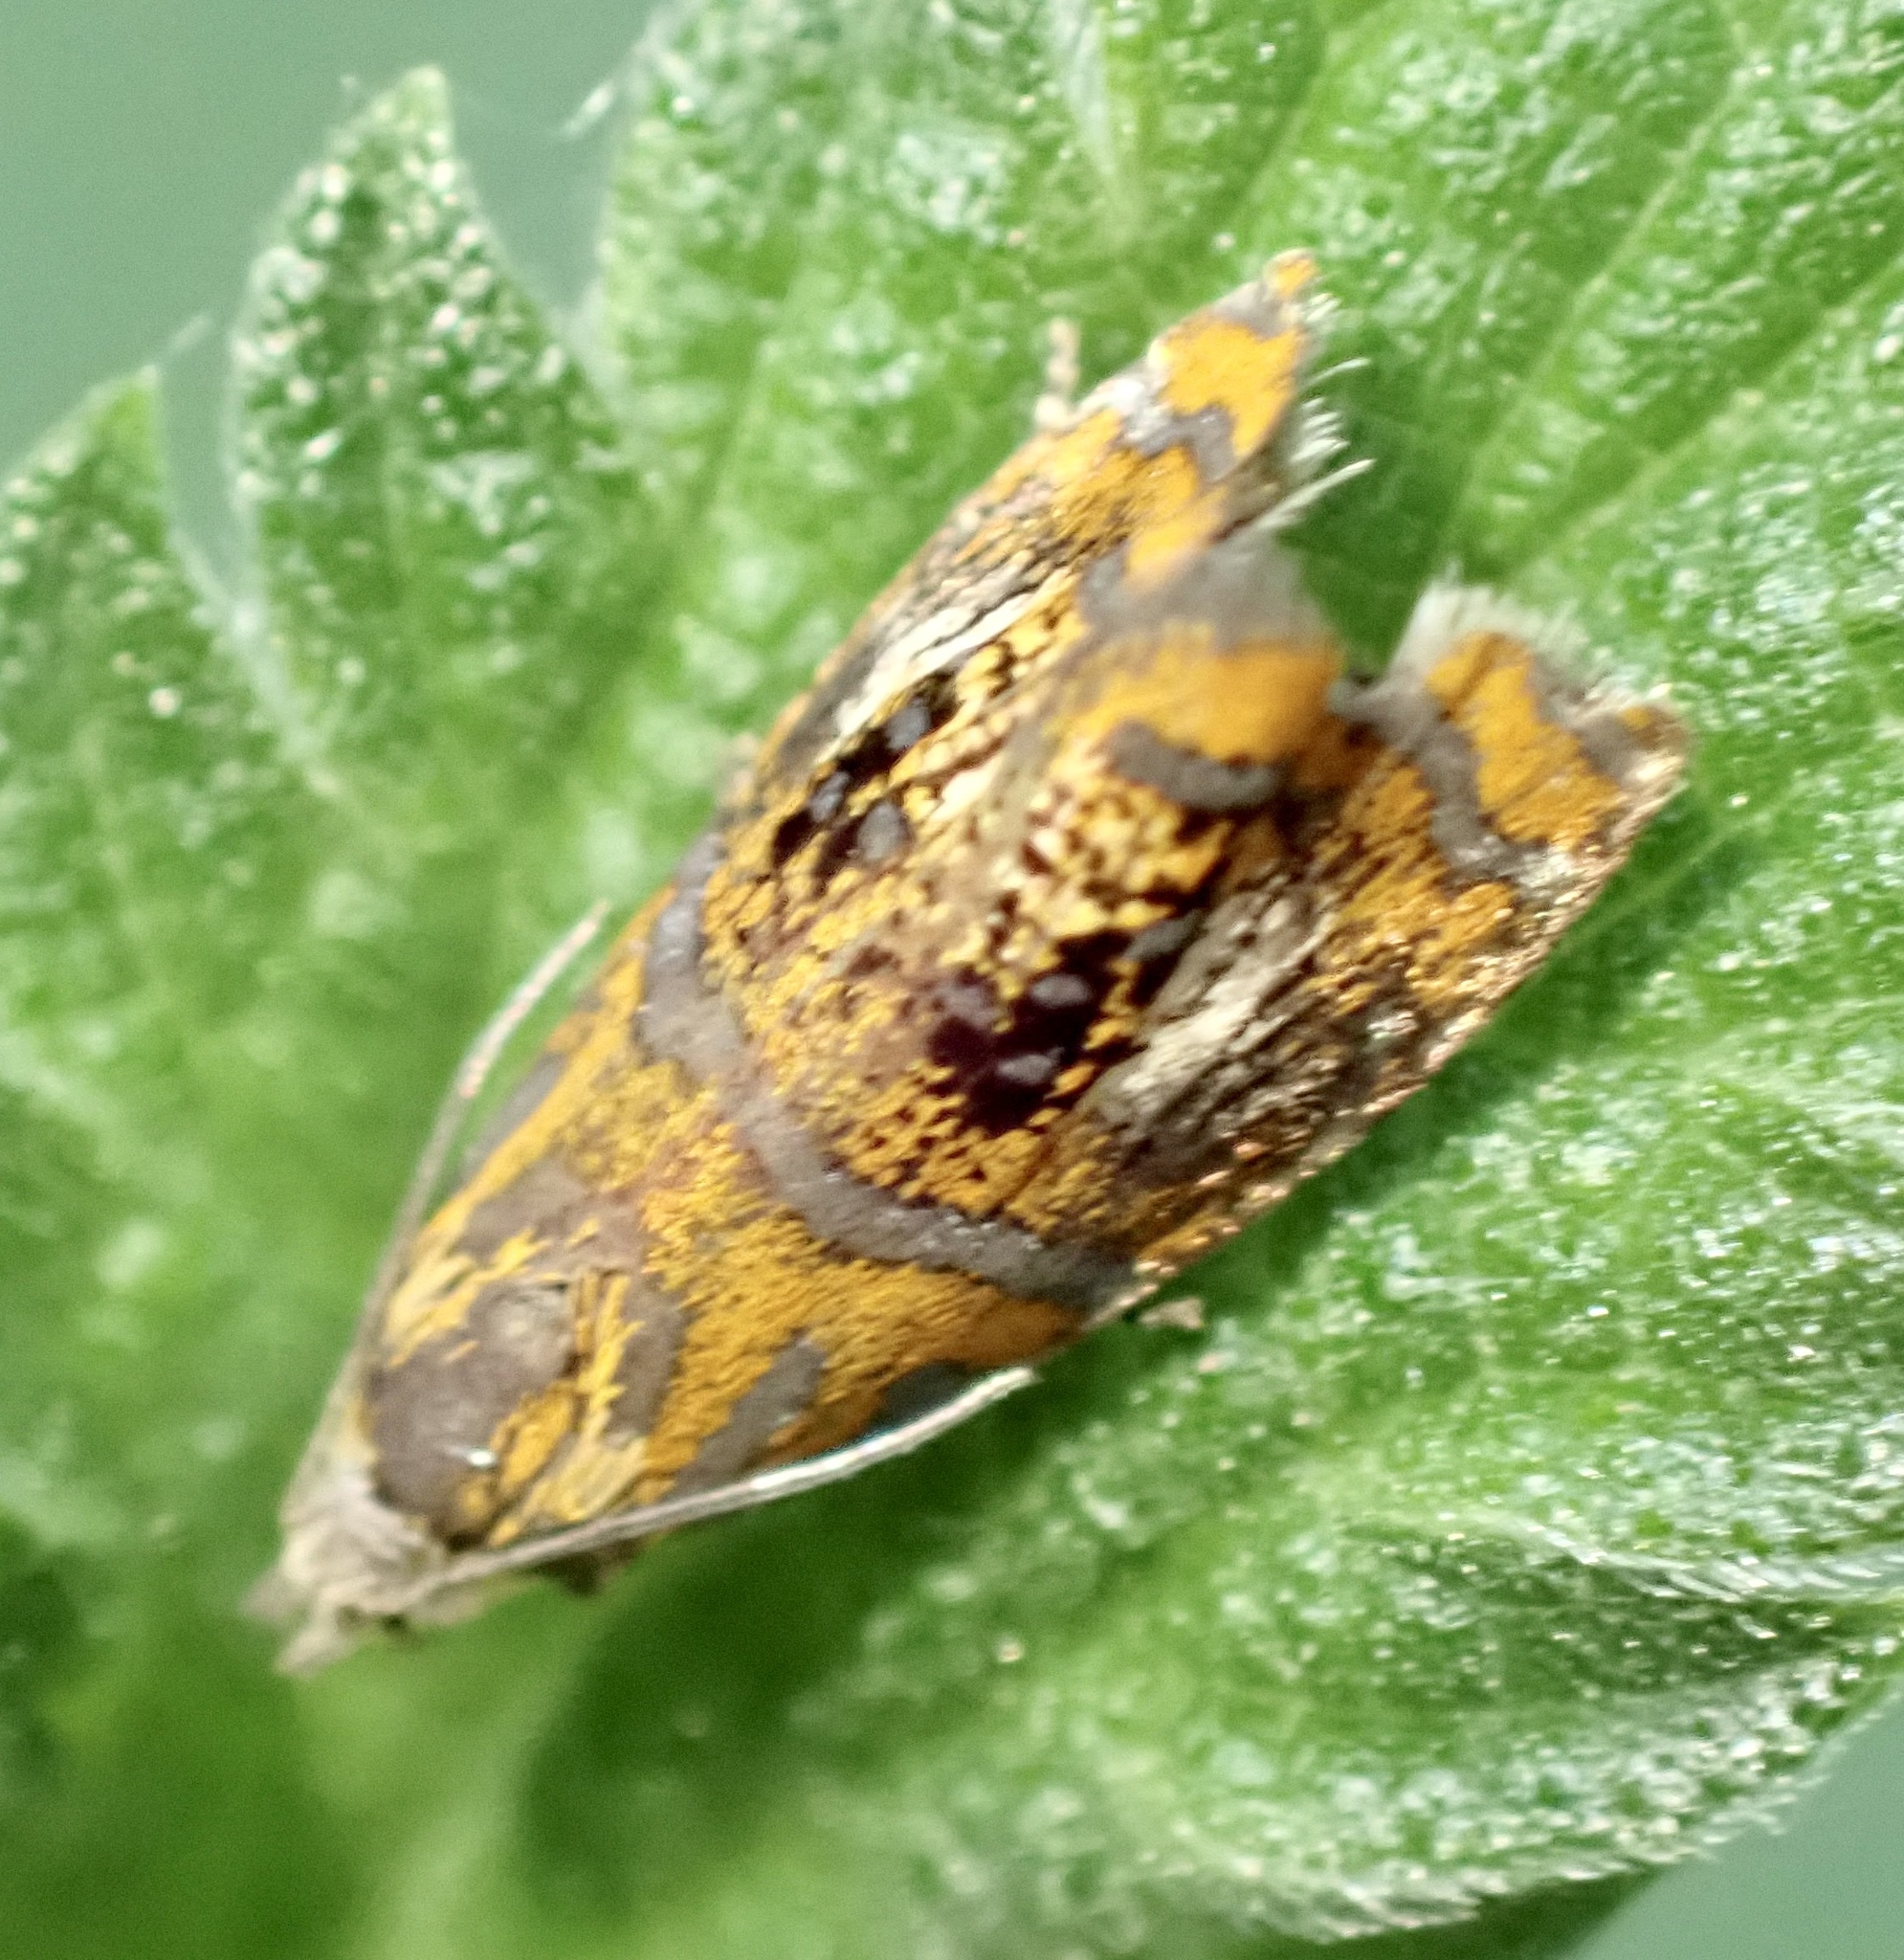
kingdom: Animalia
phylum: Arthropoda
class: Insecta
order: Lepidoptera
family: Tortricidae
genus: Olethreutes
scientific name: Olethreutes arcuella
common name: Arched marble
